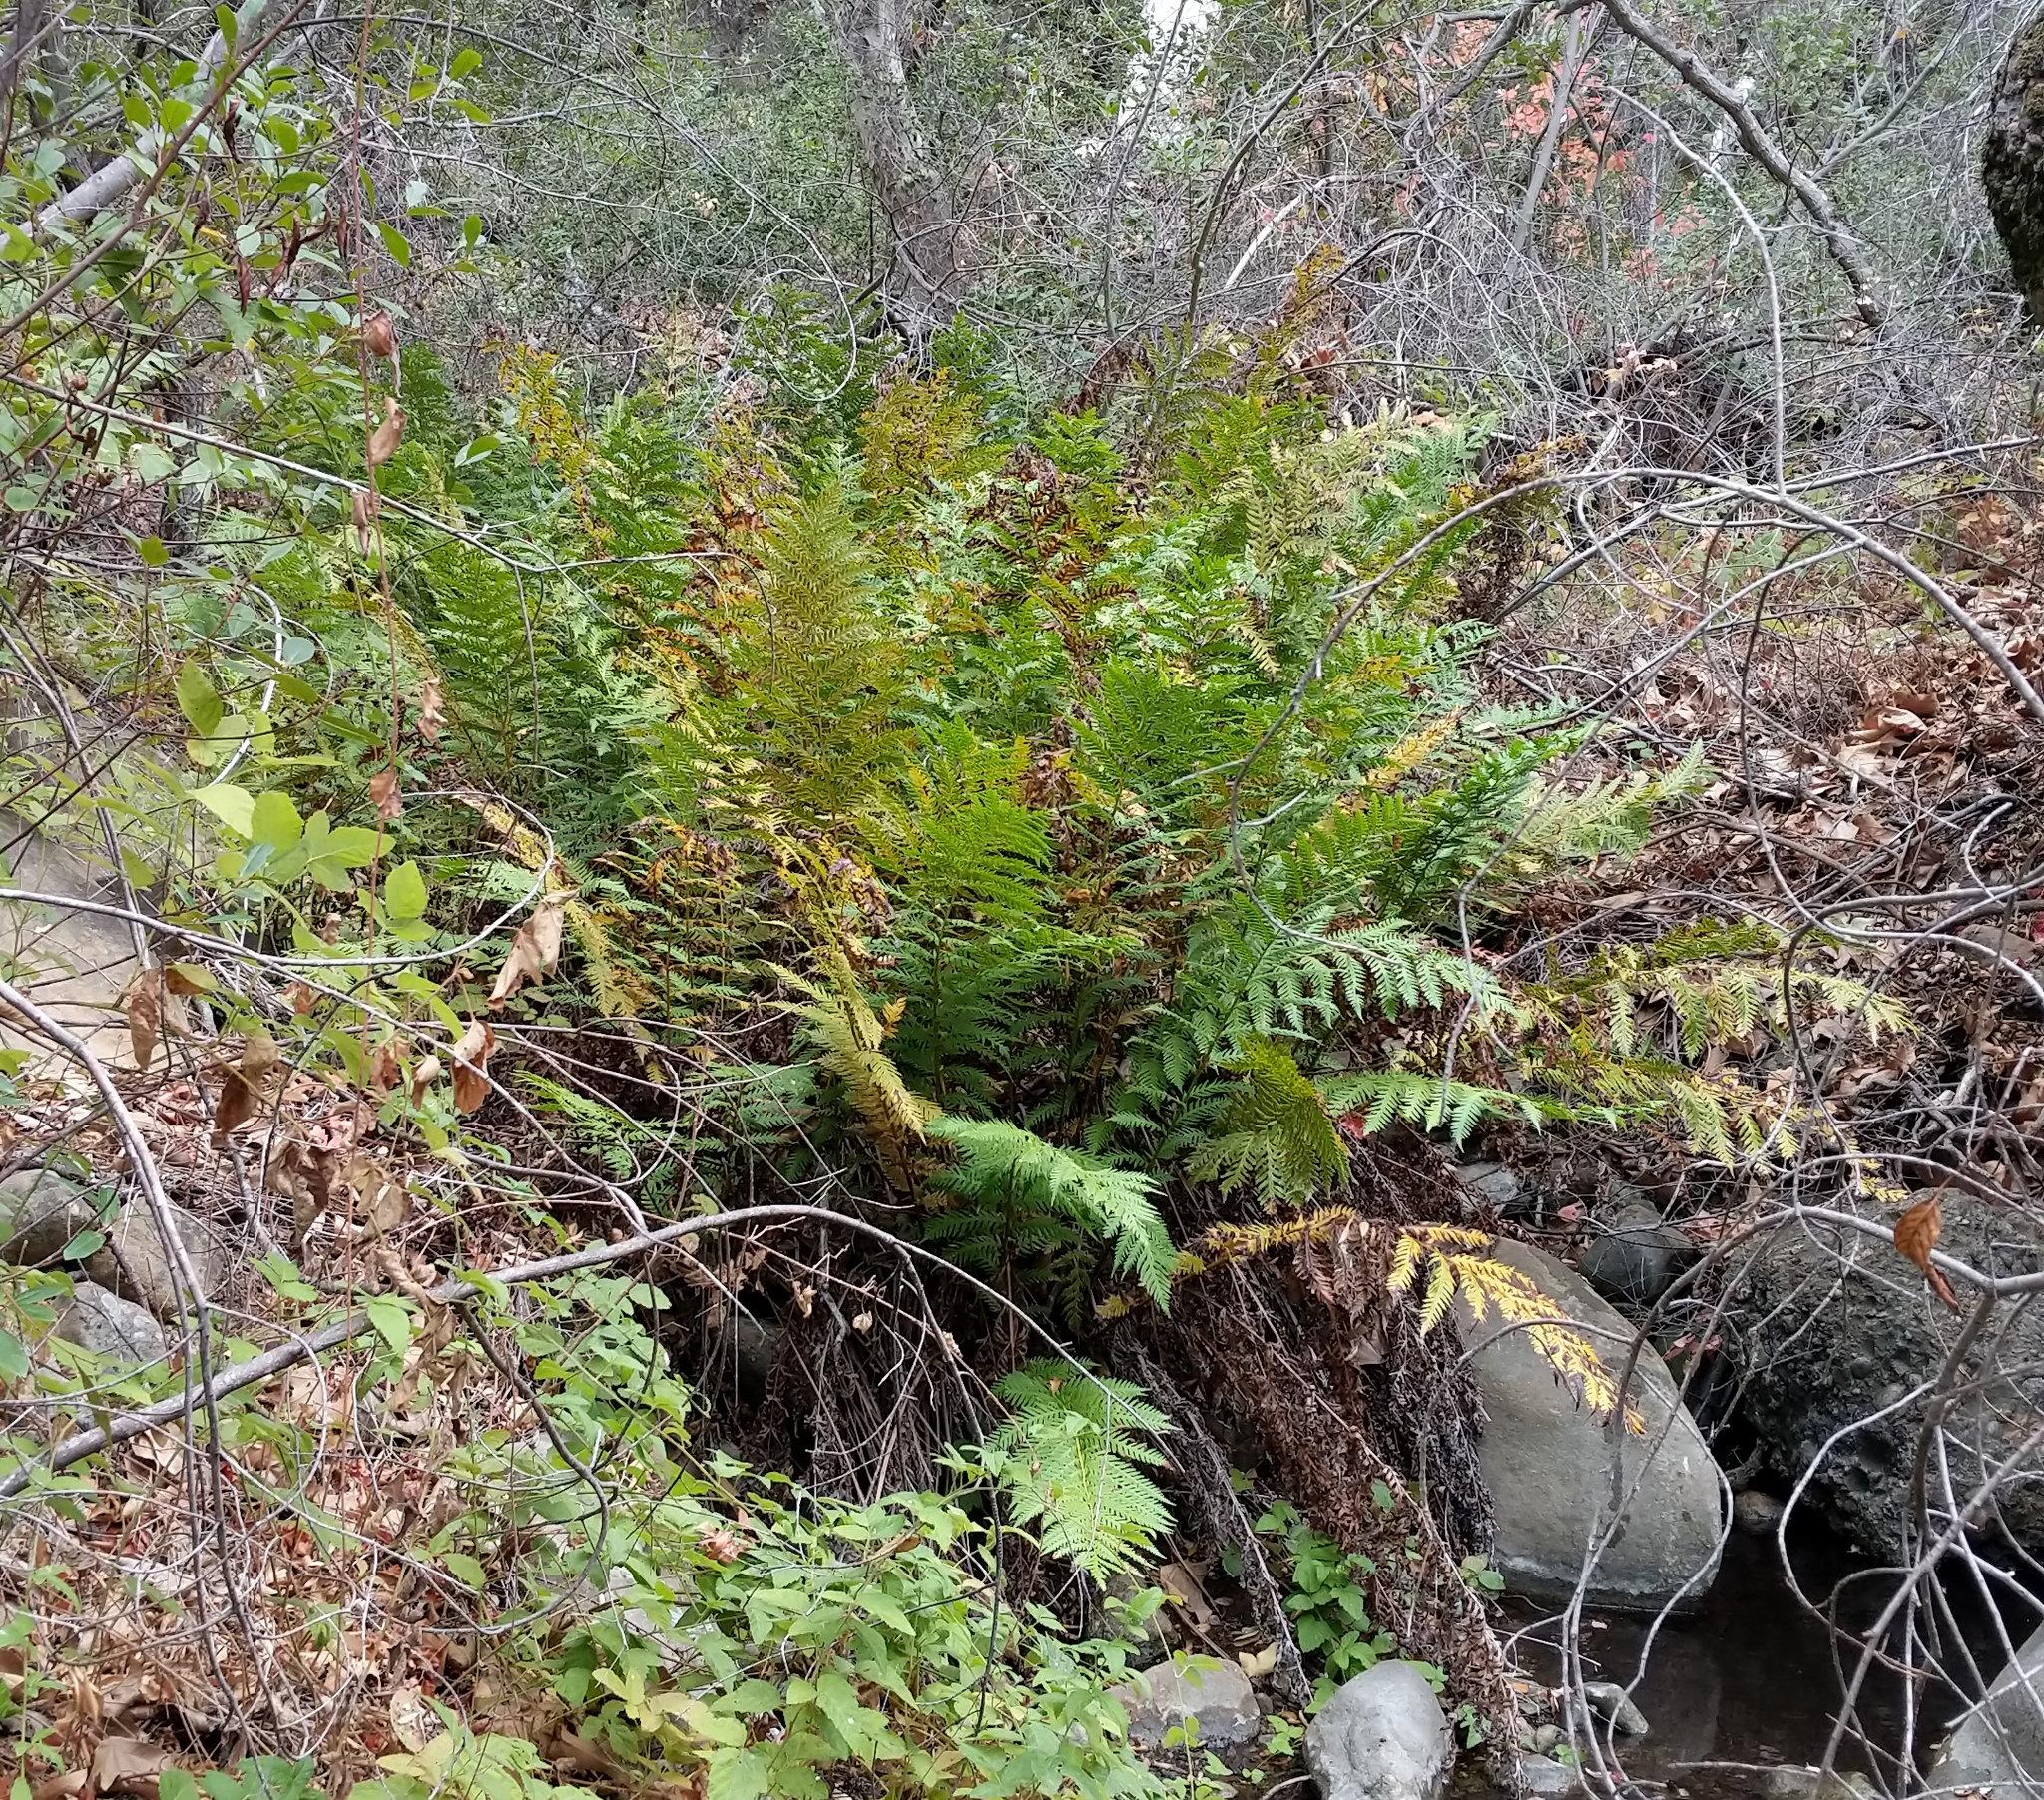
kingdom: Plantae
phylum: Tracheophyta
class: Polypodiopsida
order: Polypodiales
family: Blechnaceae
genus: Woodwardia
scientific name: Woodwardia fimbriata
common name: Giant chain fern
